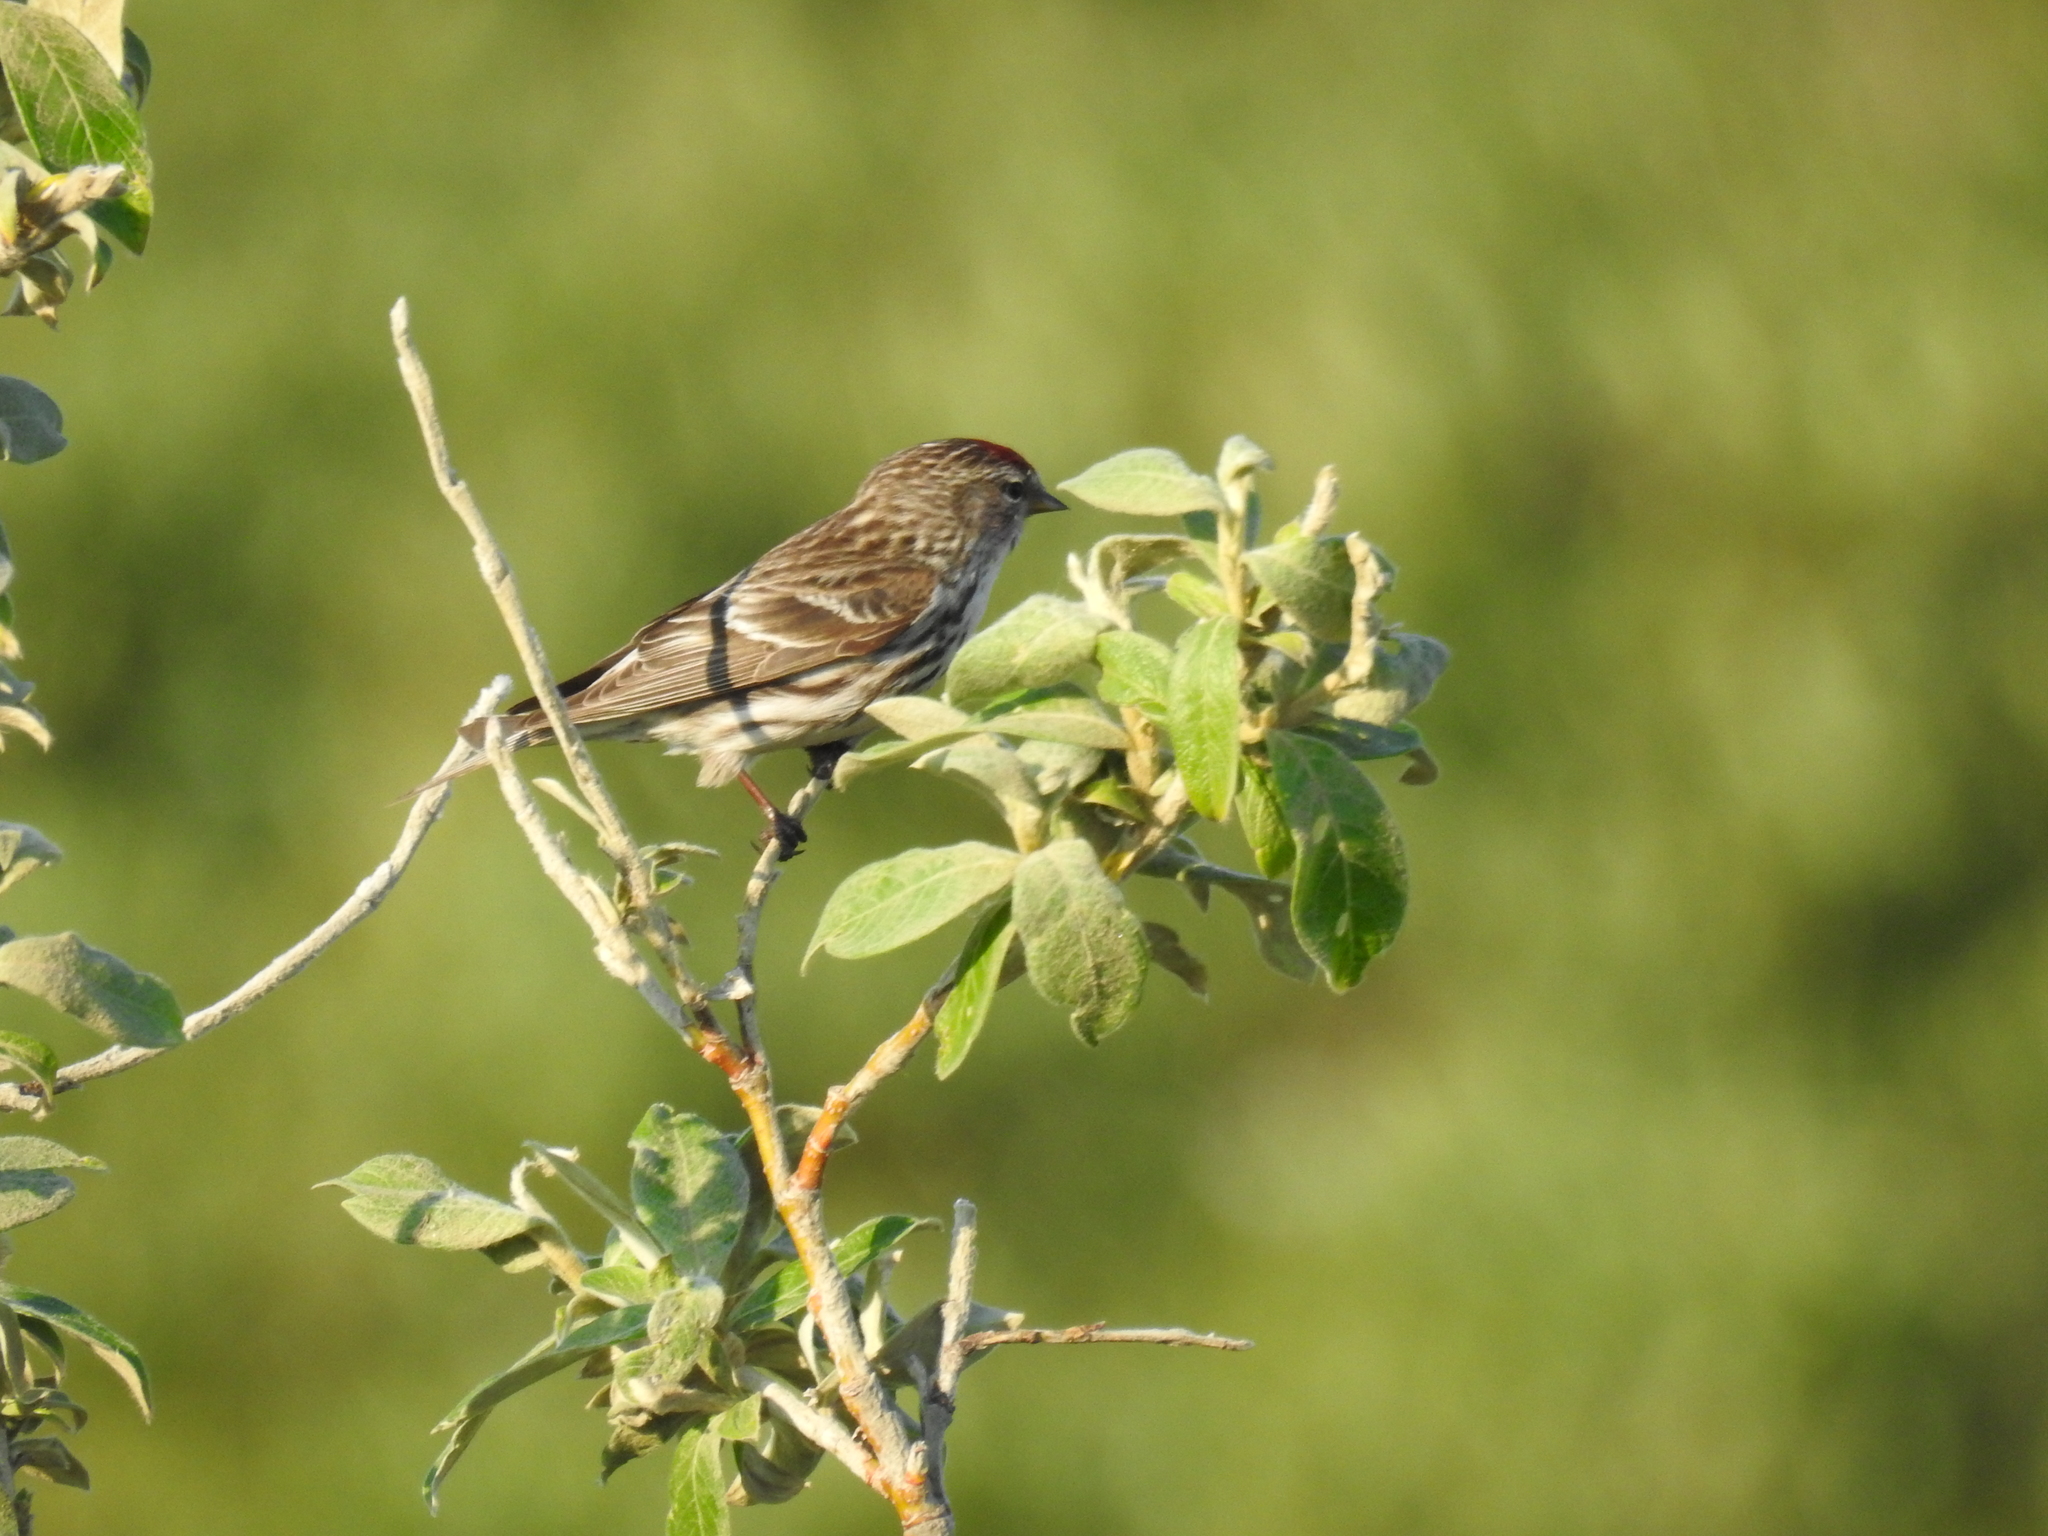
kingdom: Animalia
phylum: Chordata
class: Aves
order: Passeriformes
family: Fringillidae
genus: Acanthis
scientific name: Acanthis flammea
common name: Common redpoll
